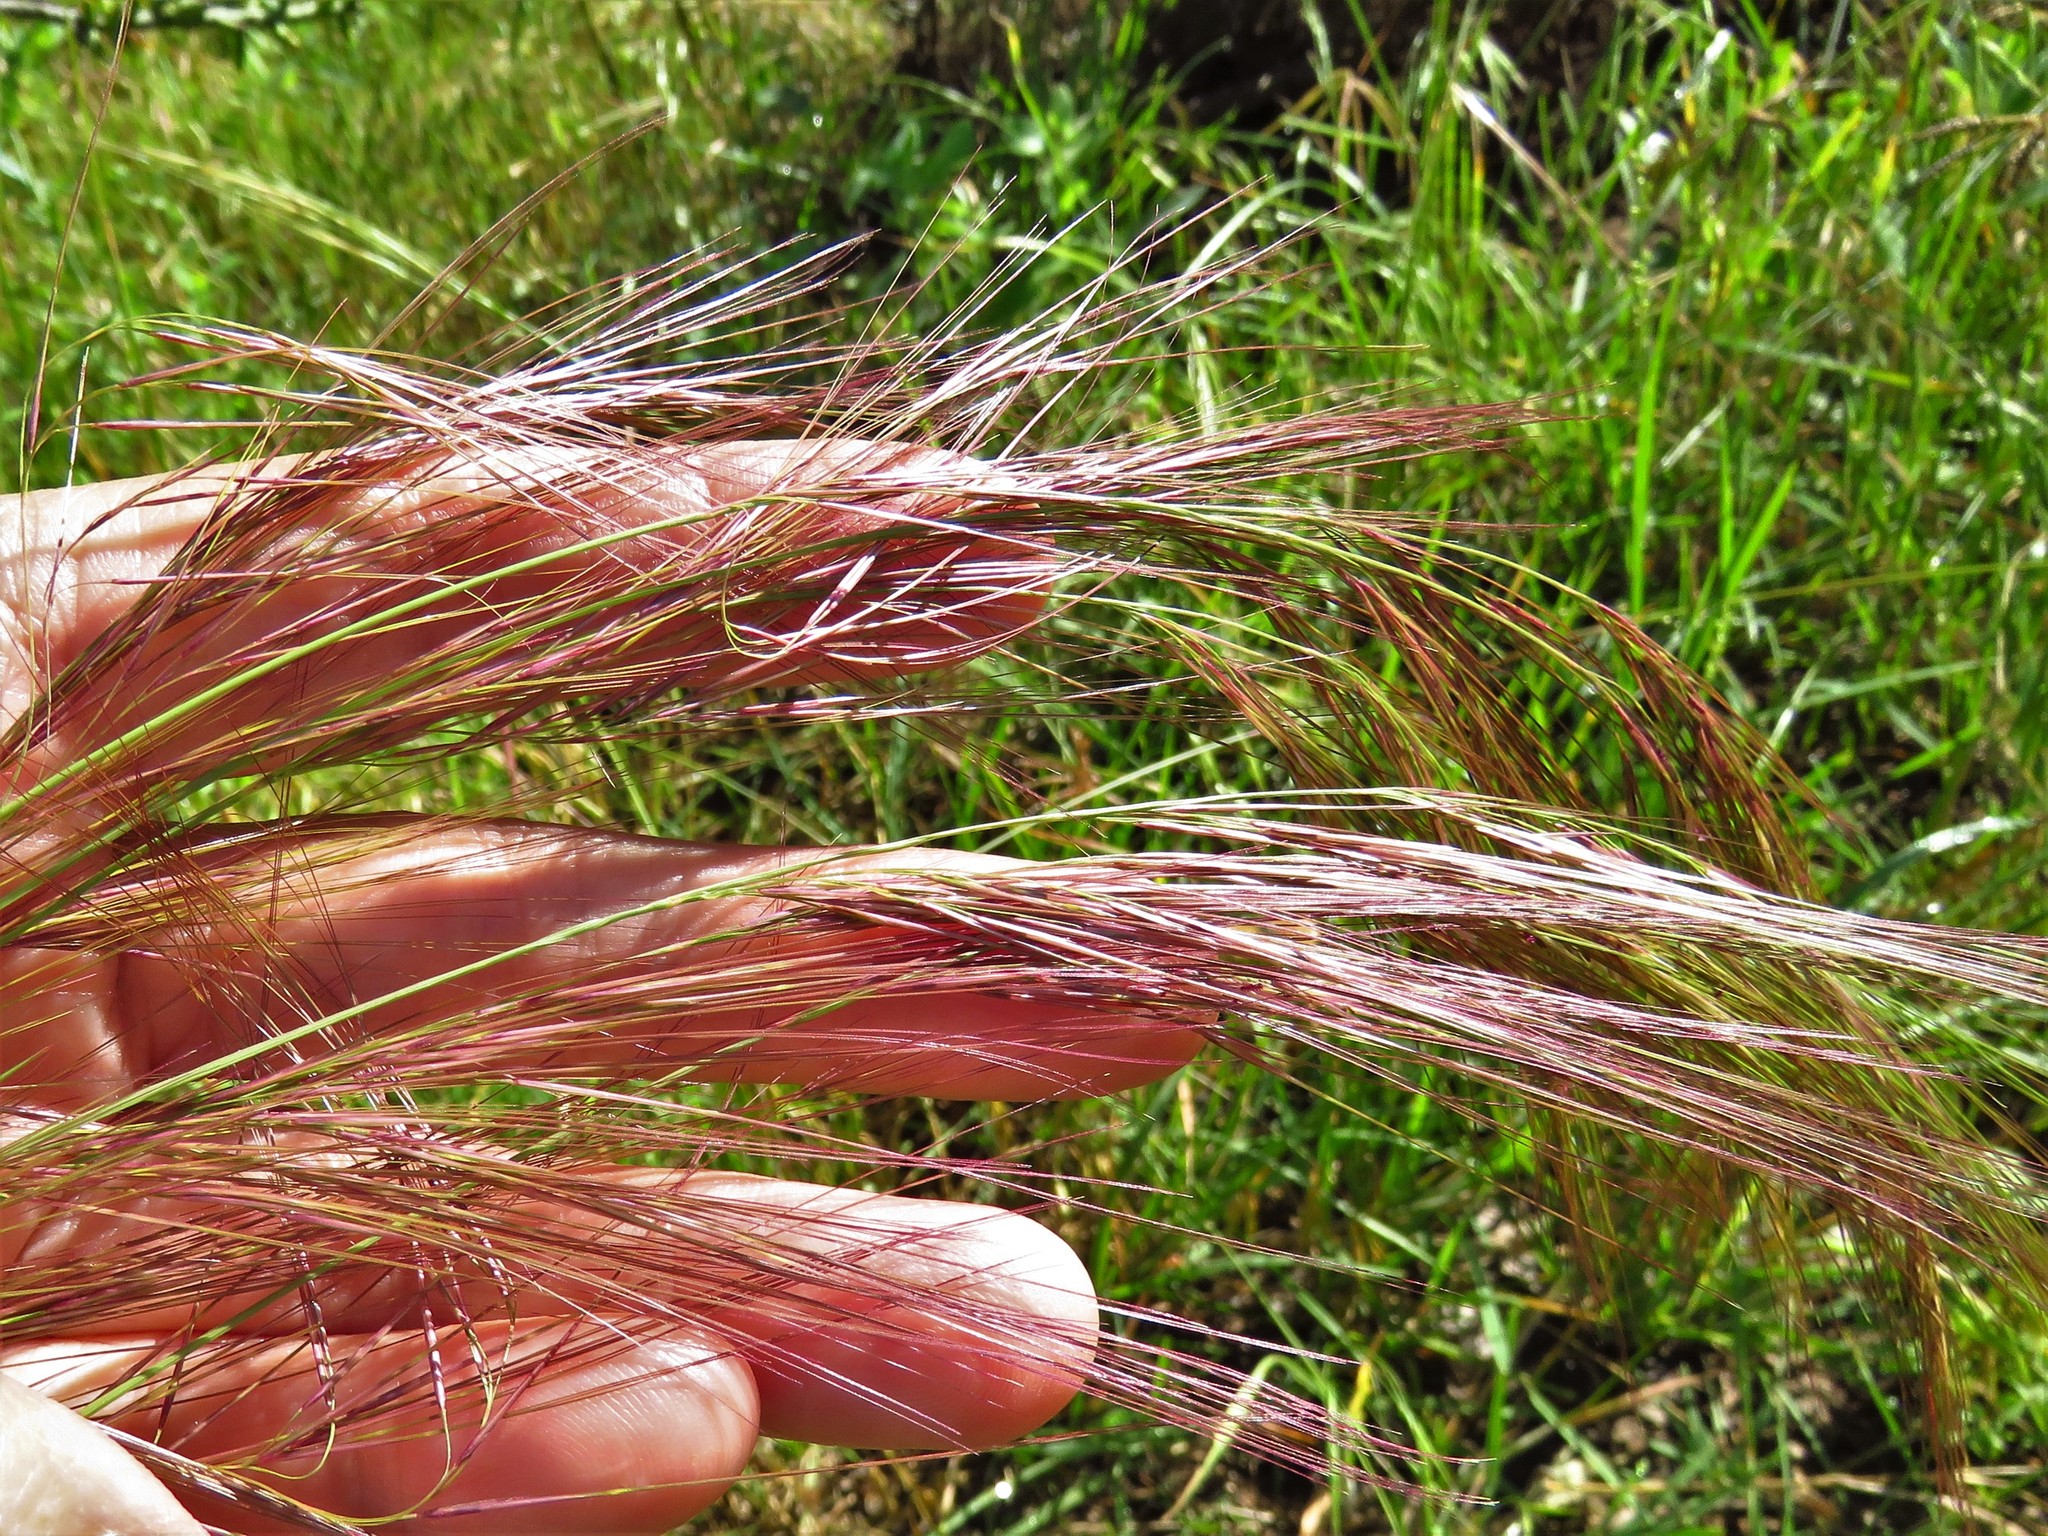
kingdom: Plantae
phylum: Tracheophyta
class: Liliopsida
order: Poales
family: Poaceae
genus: Aristida
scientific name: Aristida purpurea
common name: Purple threeawn
